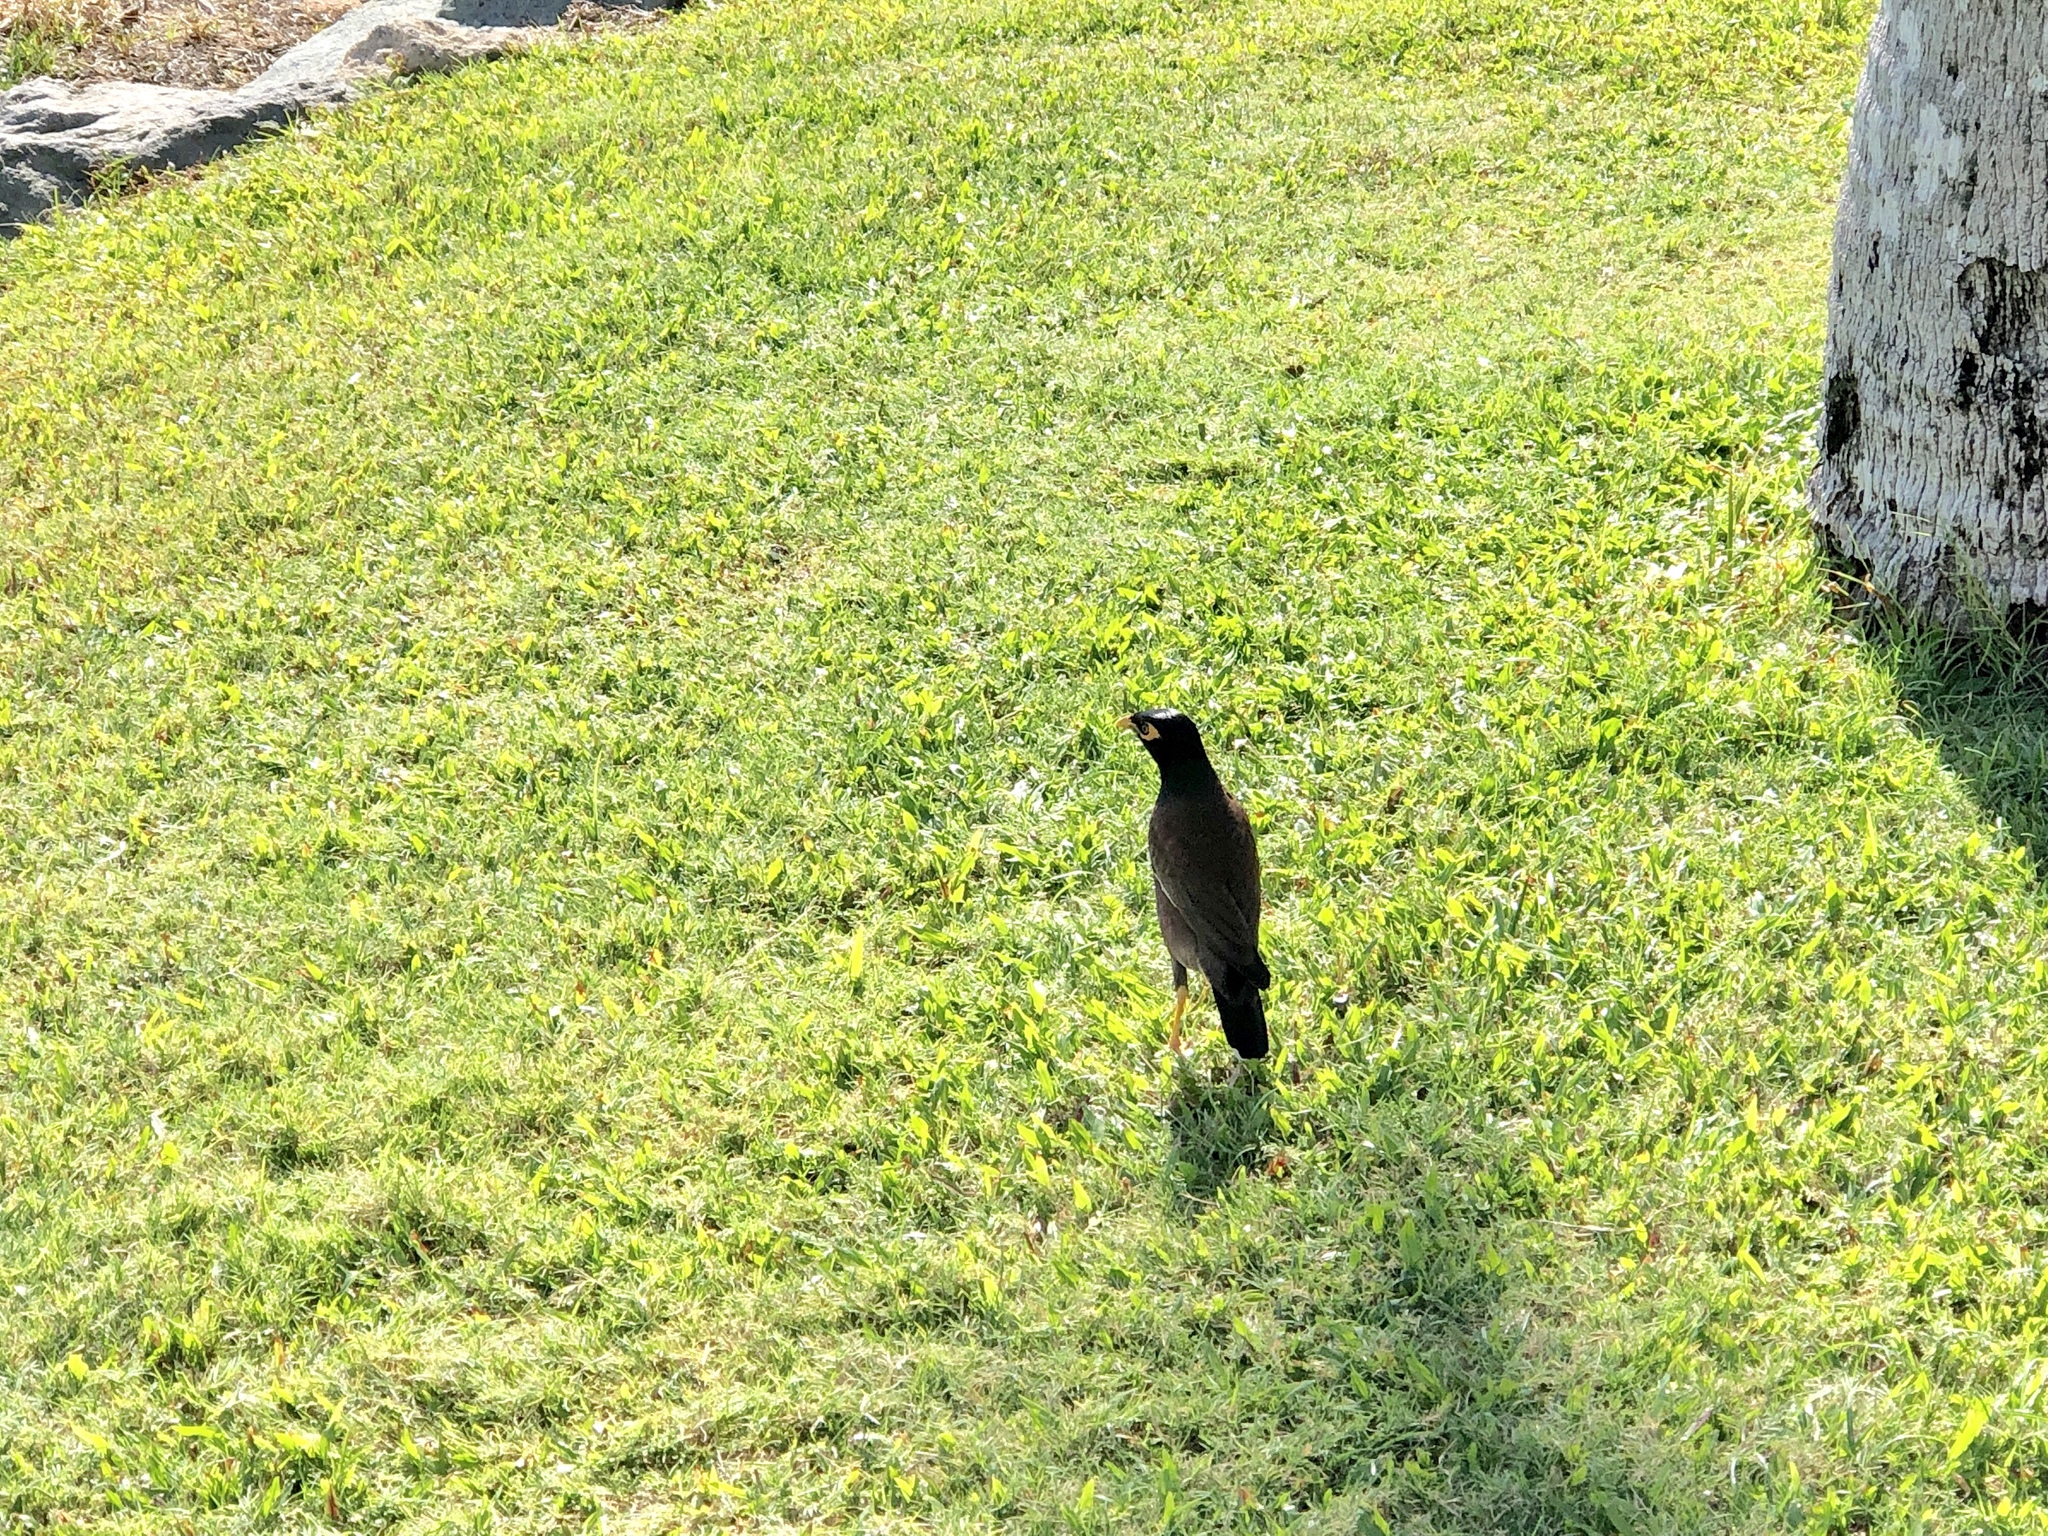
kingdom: Animalia
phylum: Chordata
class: Aves
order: Passeriformes
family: Sturnidae
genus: Acridotheres
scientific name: Acridotheres tristis
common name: Common myna
